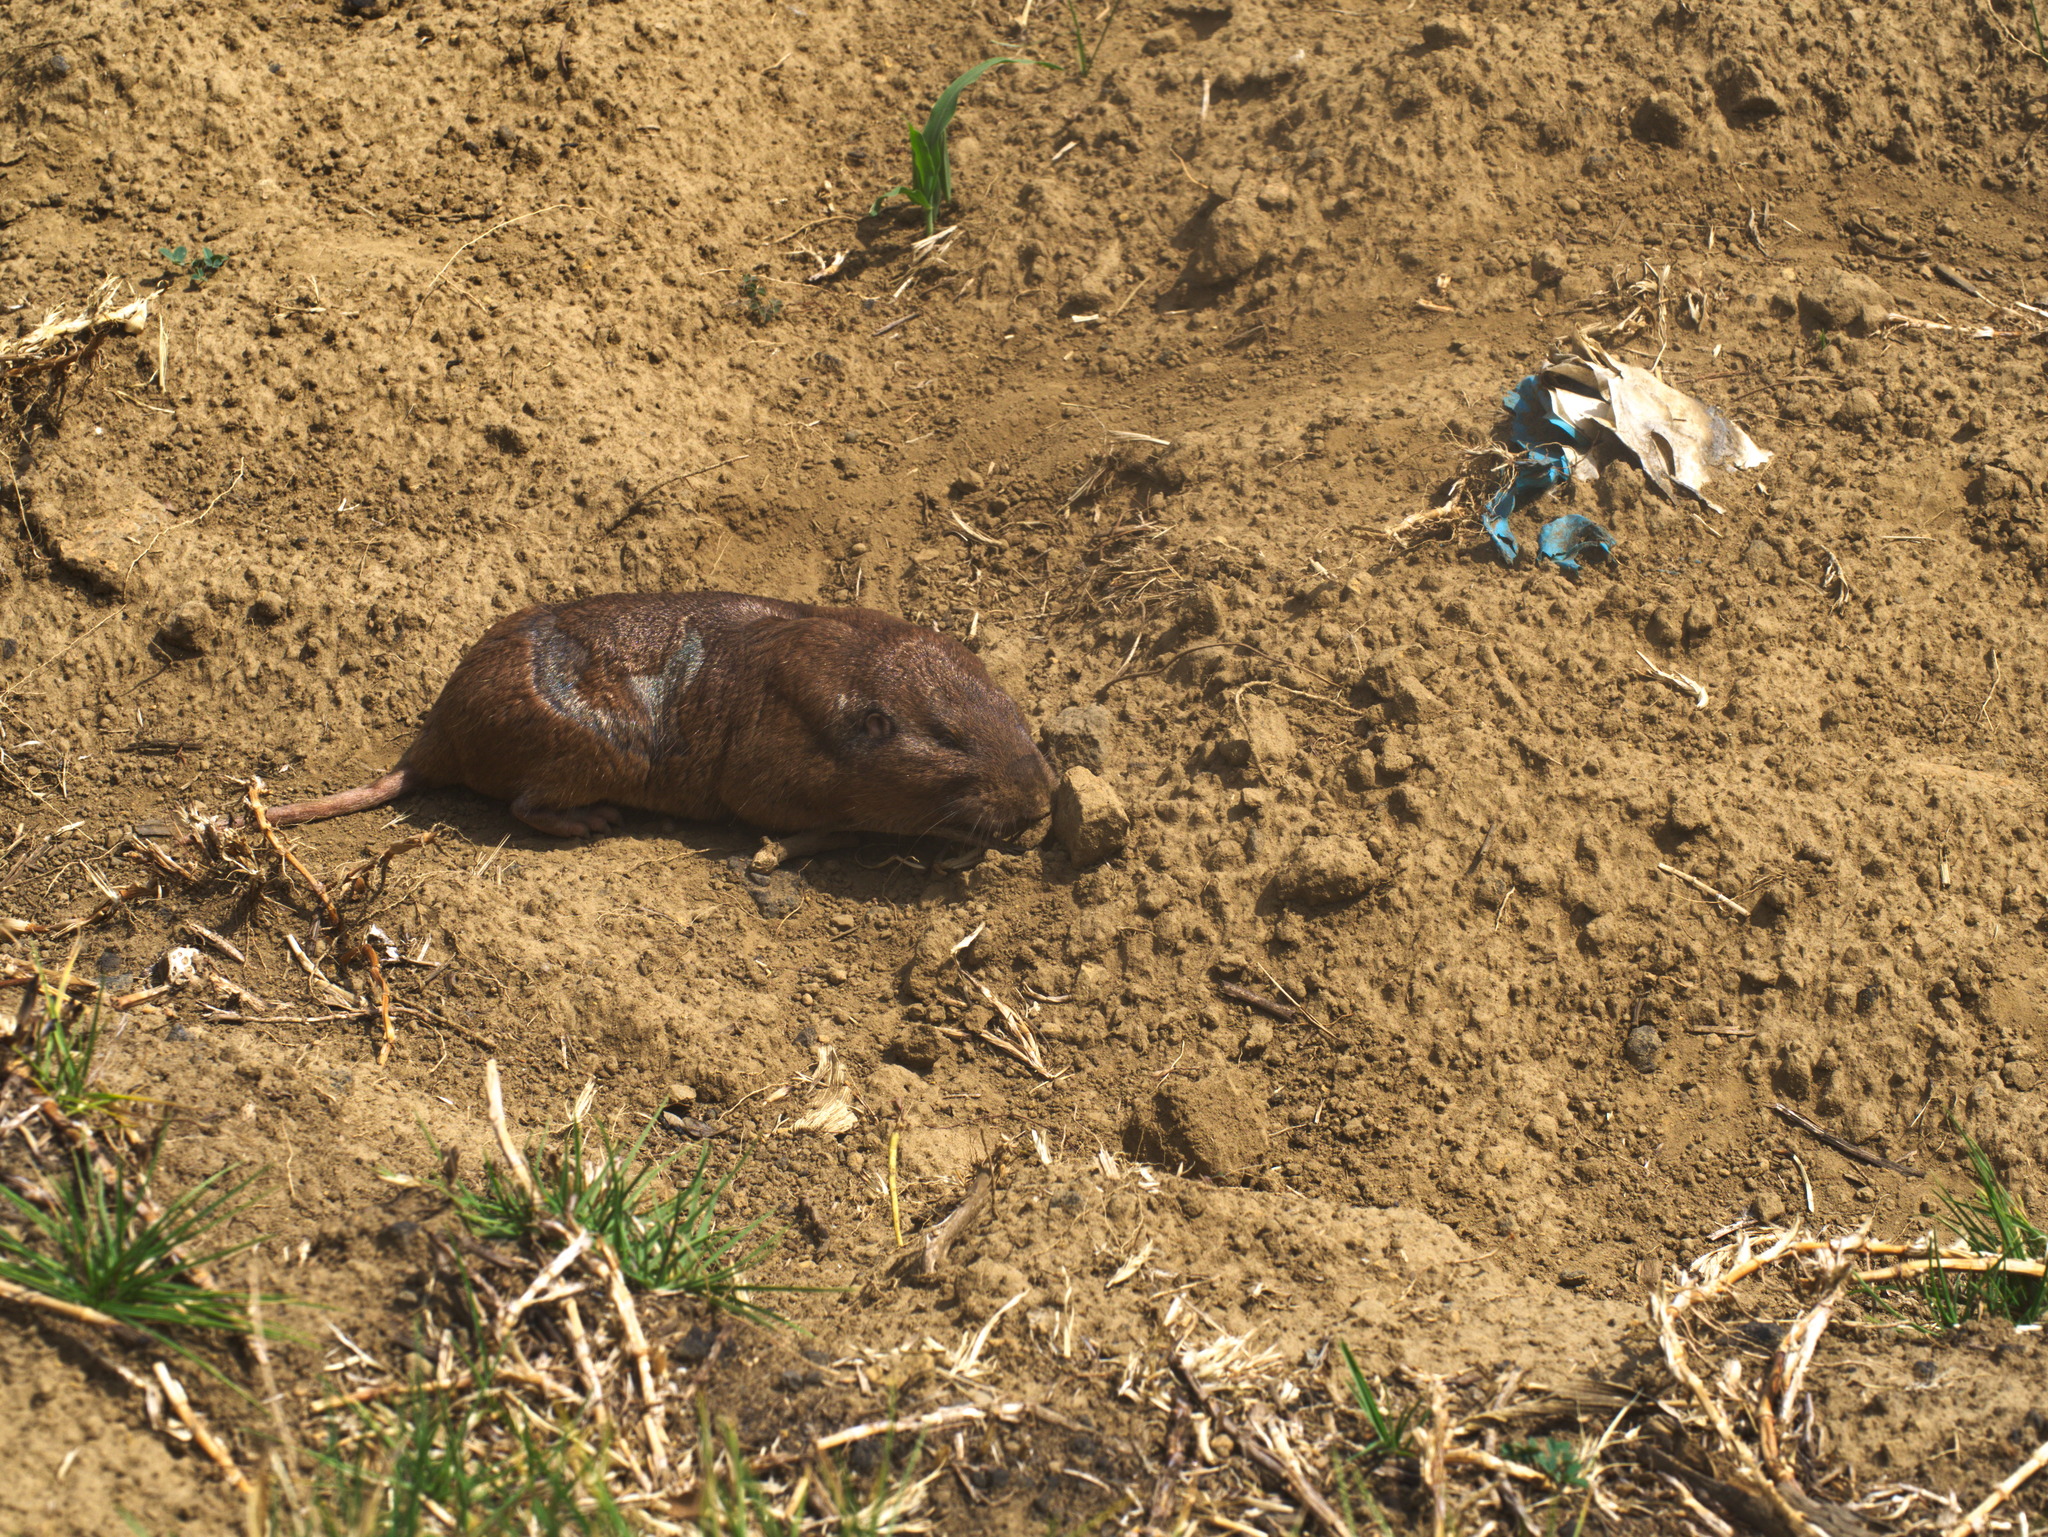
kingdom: Animalia
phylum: Chordata
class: Mammalia
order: Rodentia
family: Geomyidae
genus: Cratogeomys
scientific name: Cratogeomys merriami
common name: Merriam's pocket gopher
